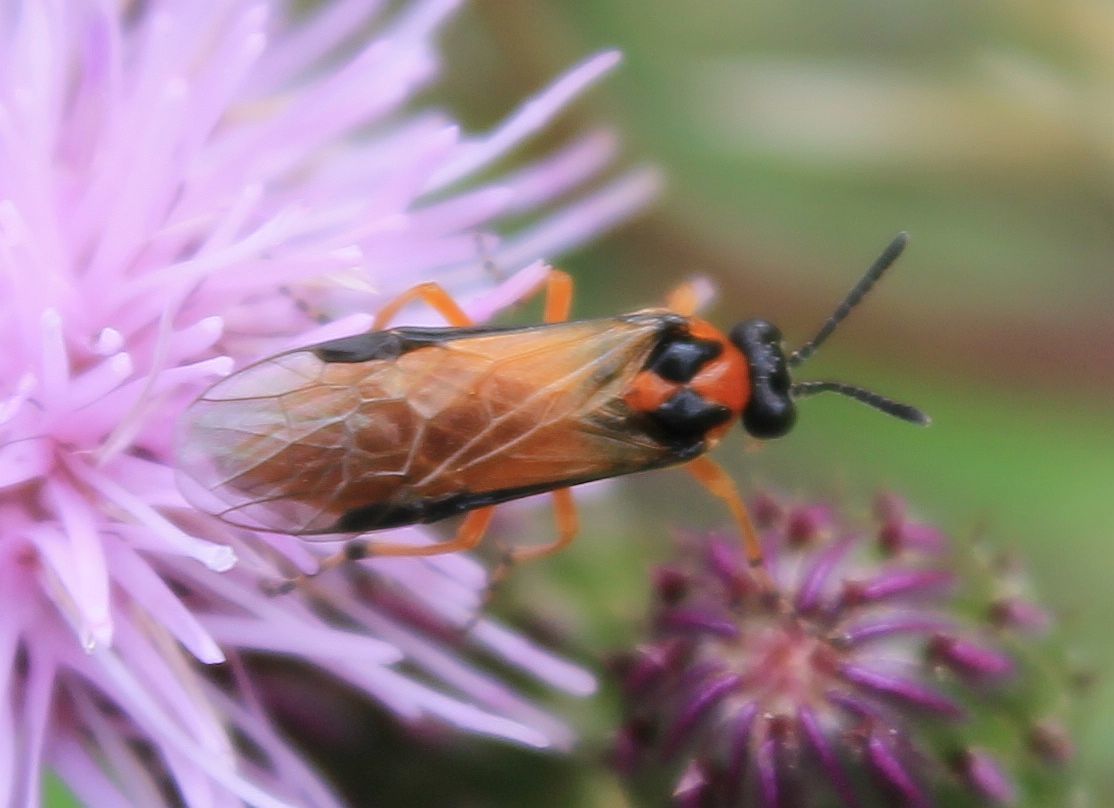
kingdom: Animalia
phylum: Arthropoda
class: Insecta
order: Hymenoptera
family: Tenthredinidae
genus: Athalia
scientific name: Athalia rosae
